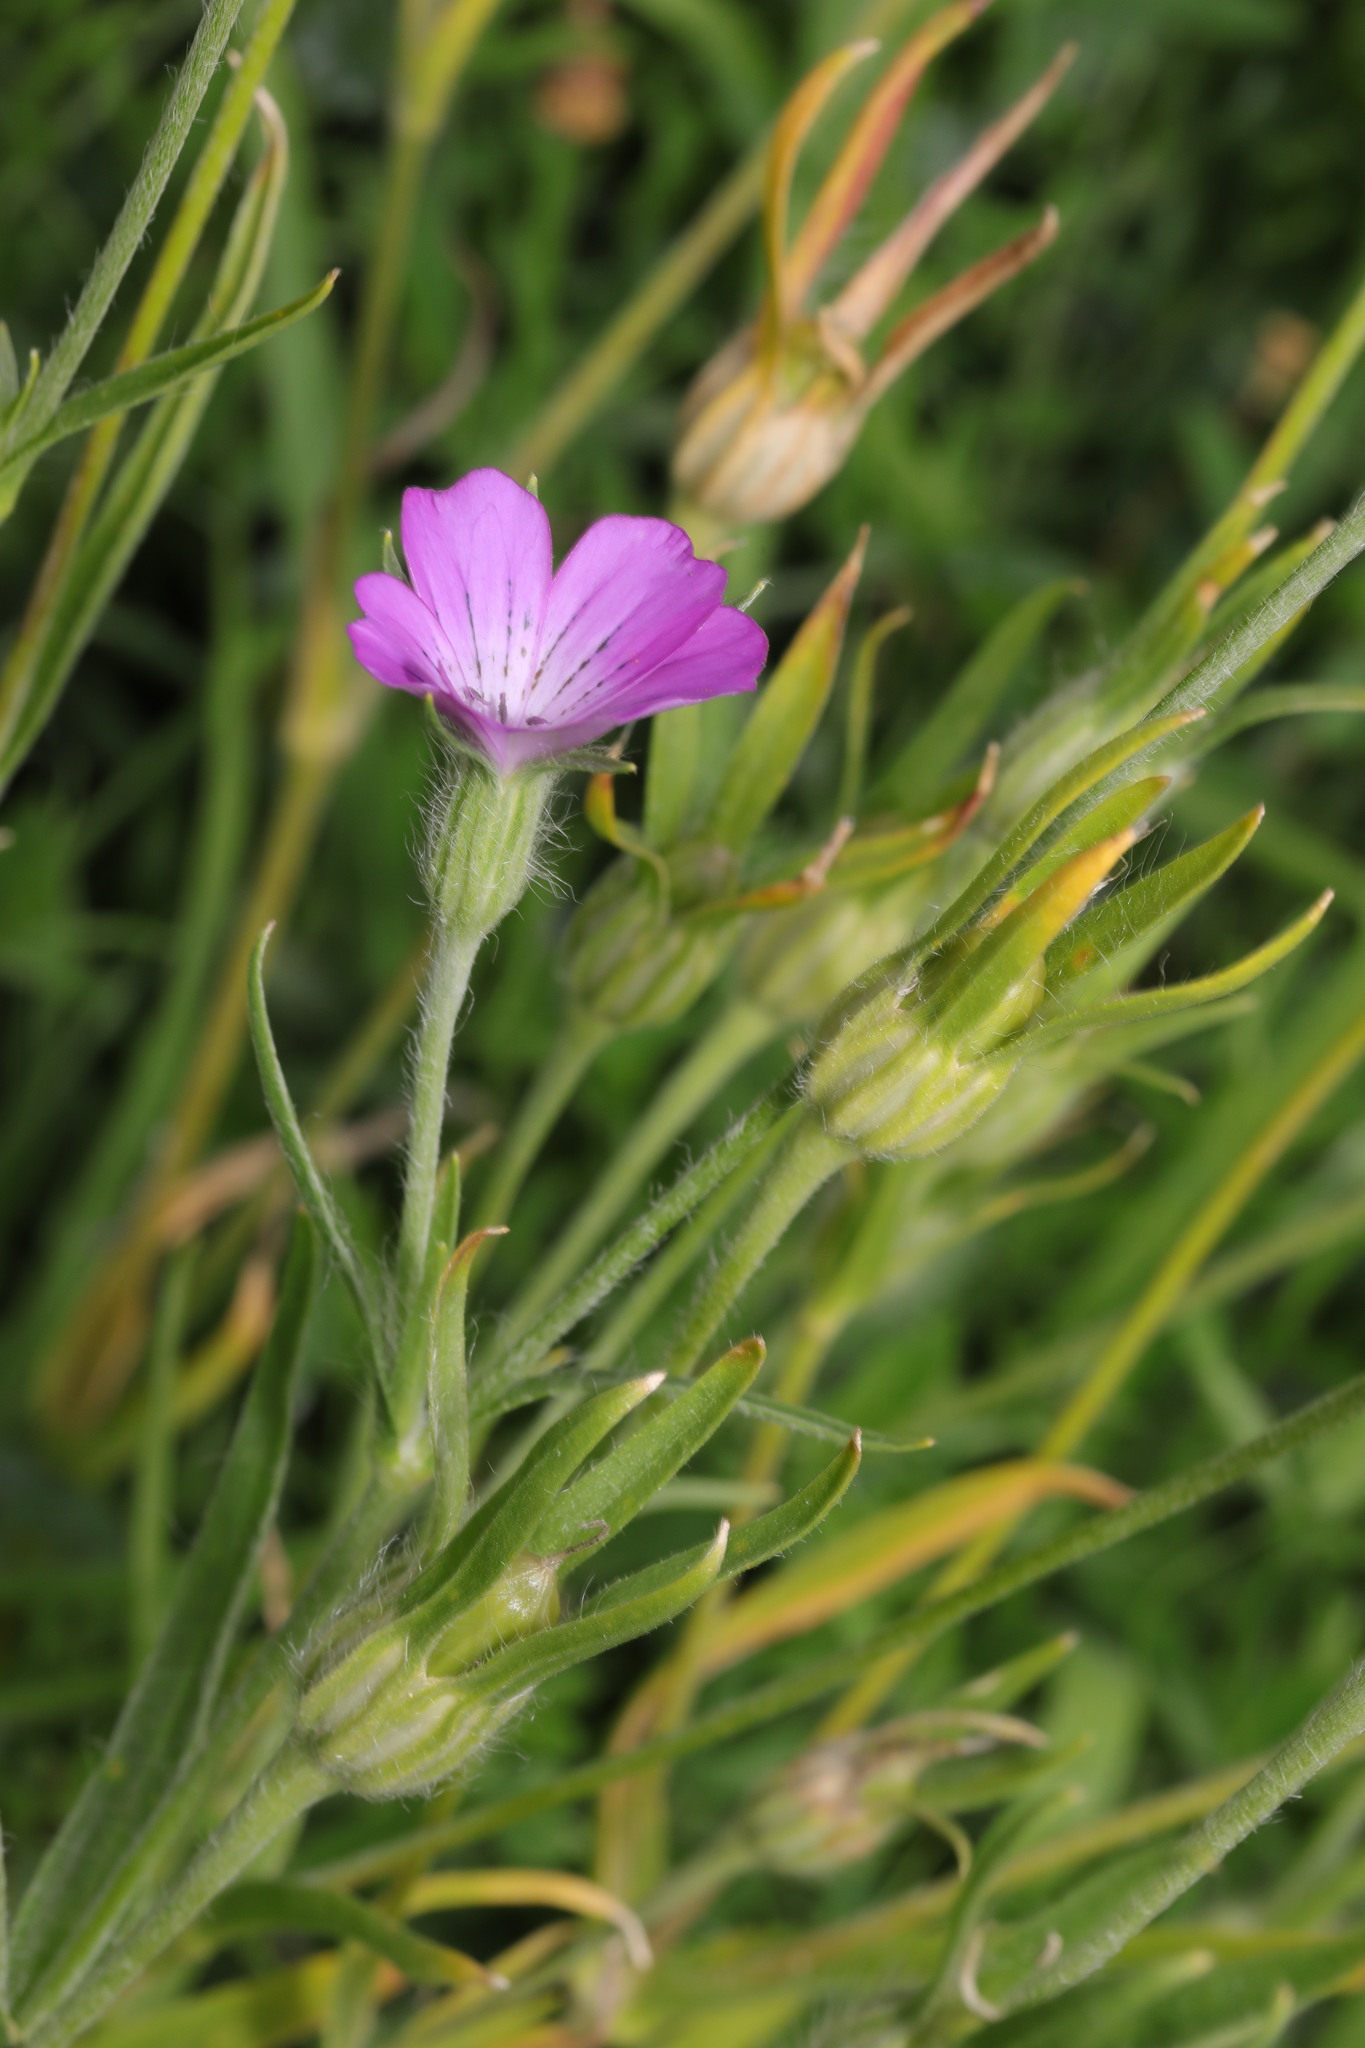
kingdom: Plantae
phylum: Tracheophyta
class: Magnoliopsida
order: Caryophyllales
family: Caryophyllaceae
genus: Agrostemma
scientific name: Agrostemma githago
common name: Common corncockle
